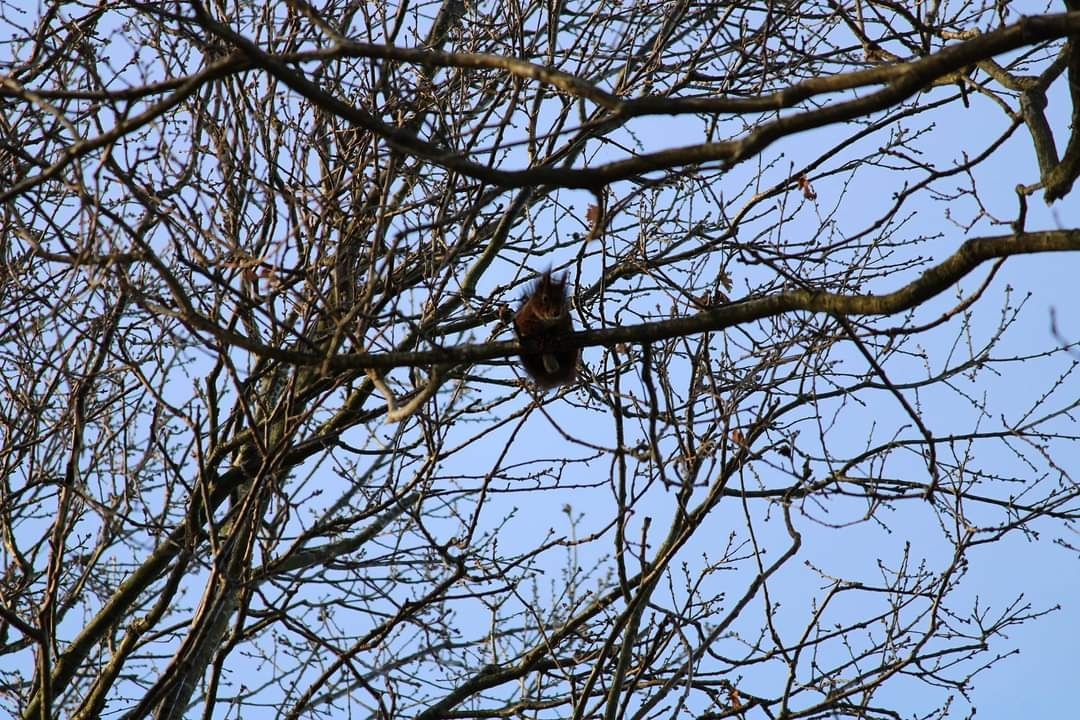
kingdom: Animalia
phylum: Chordata
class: Mammalia
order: Rodentia
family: Sciuridae
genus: Sciurus
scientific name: Sciurus vulgaris
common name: Eurasian red squirrel
